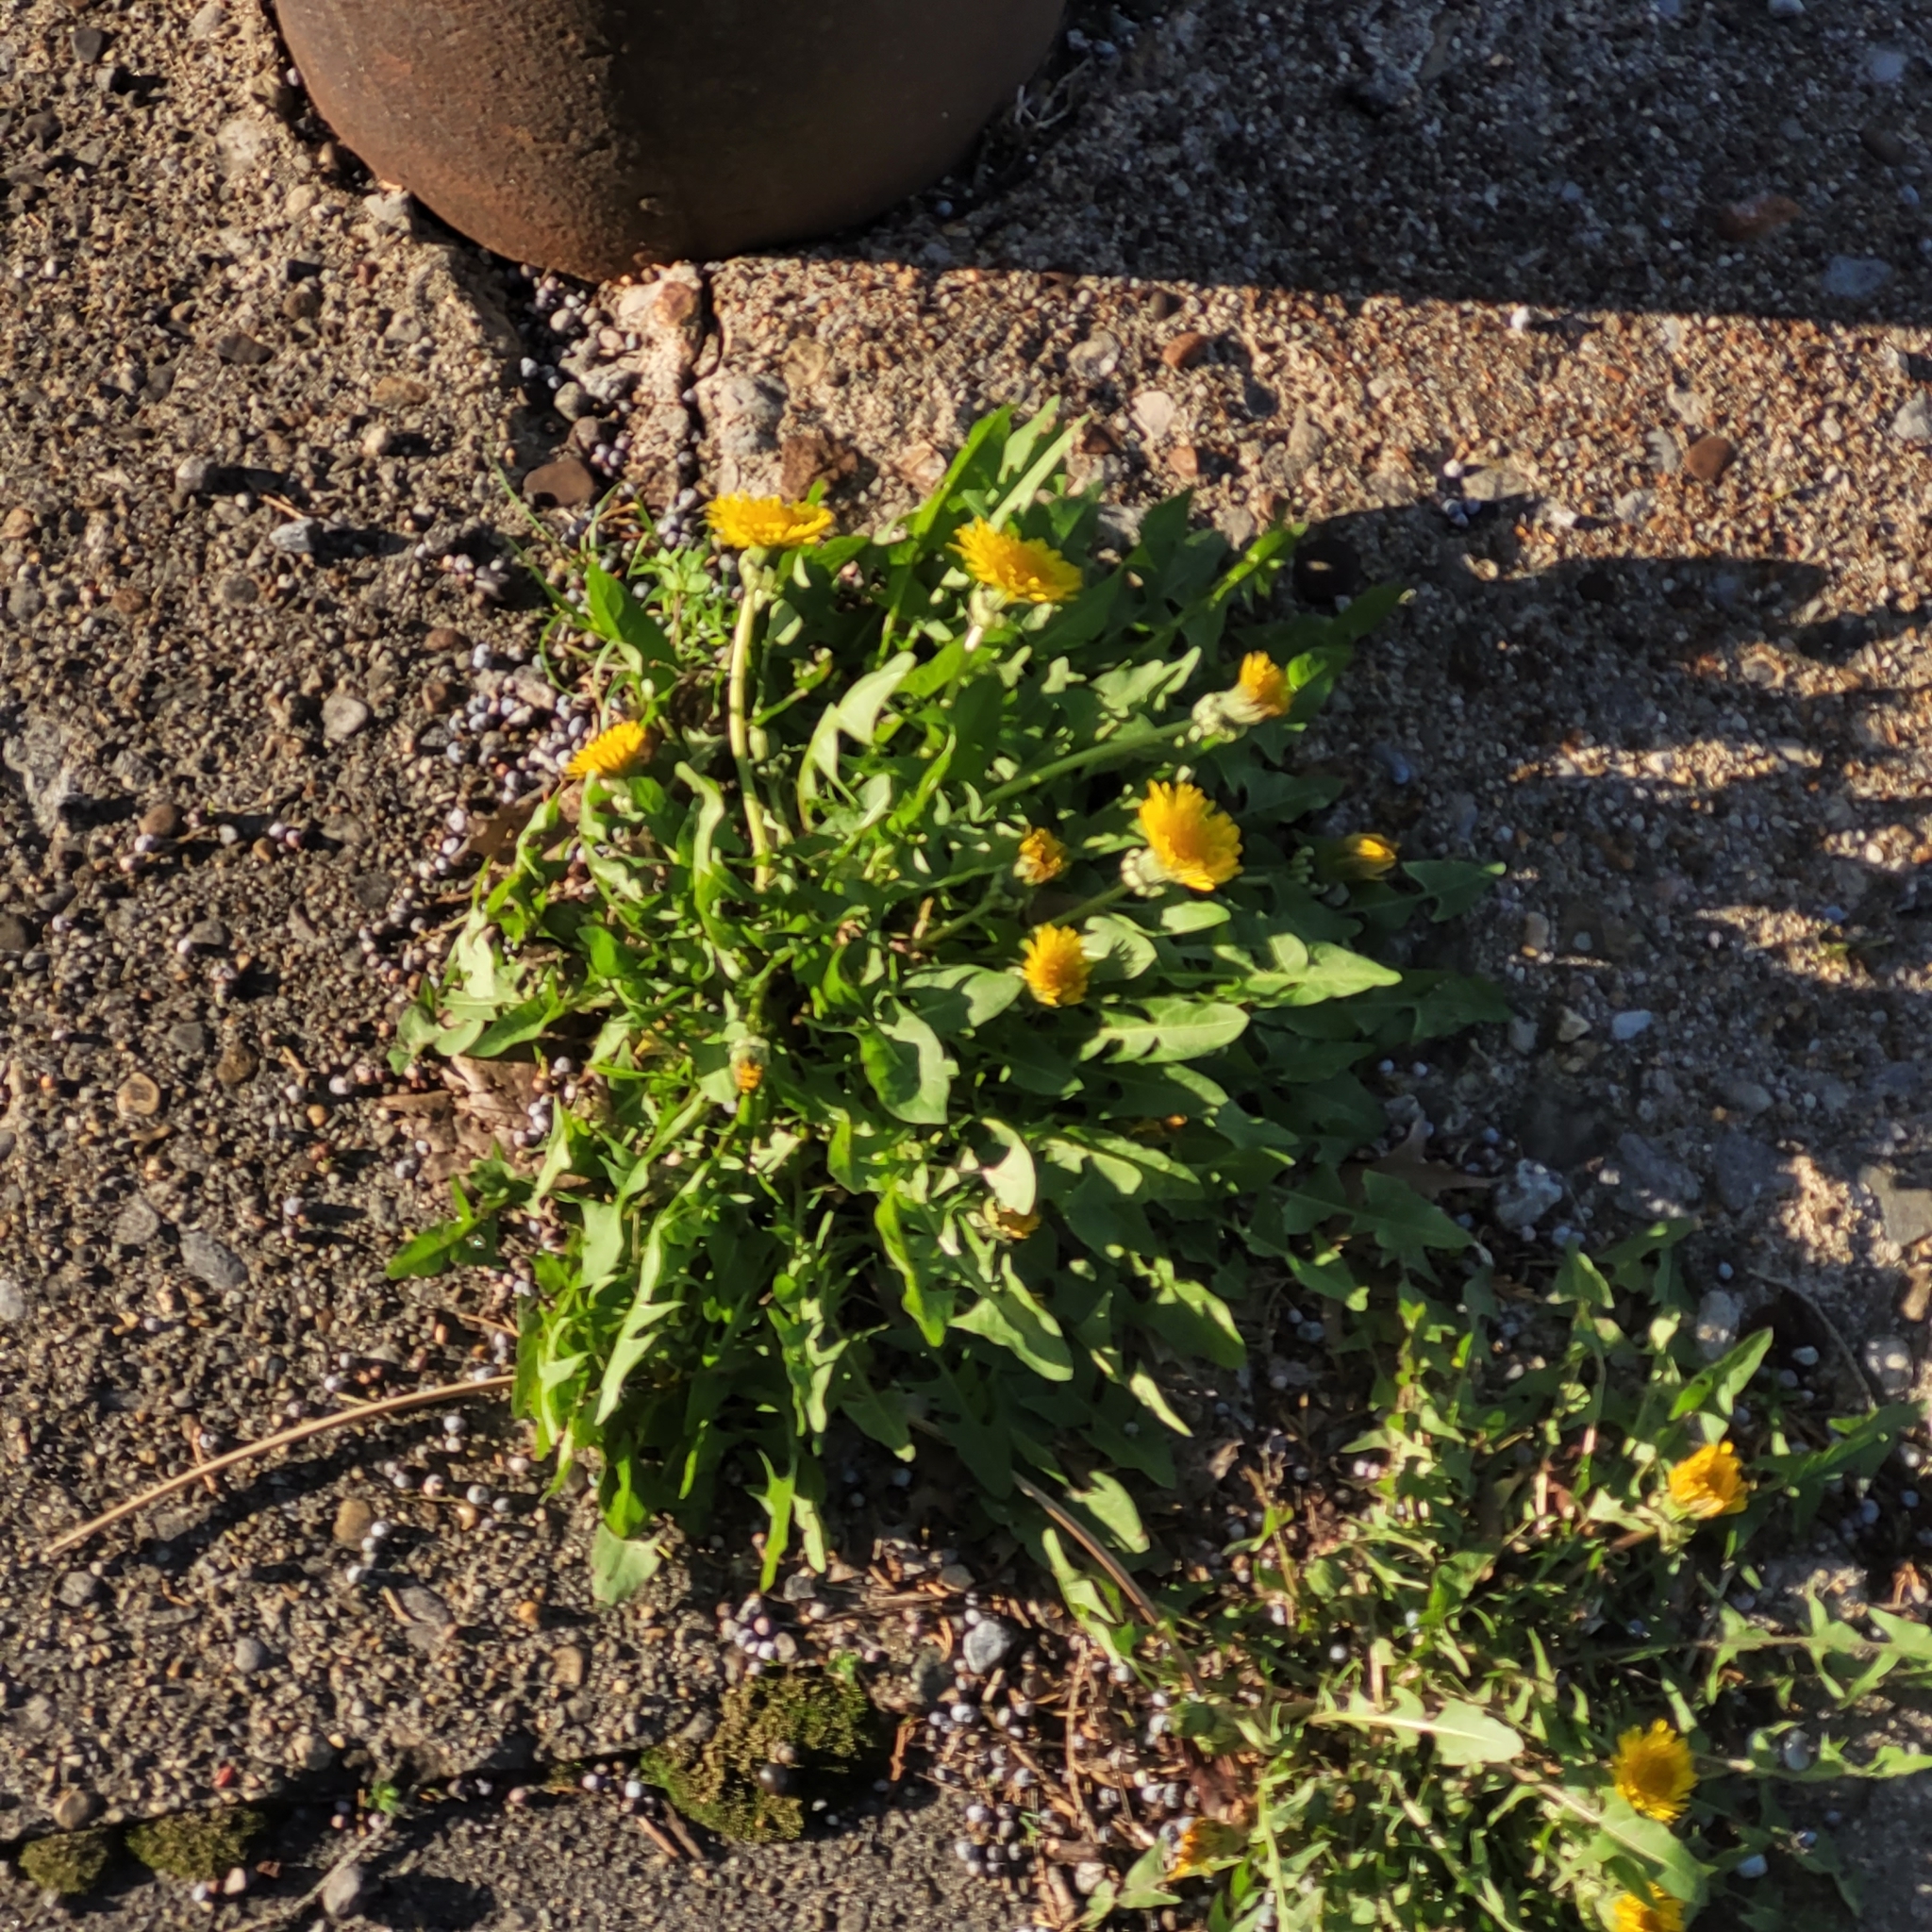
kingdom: Plantae
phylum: Tracheophyta
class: Magnoliopsida
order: Asterales
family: Asteraceae
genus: Taraxacum
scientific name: Taraxacum officinale
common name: Common dandelion
